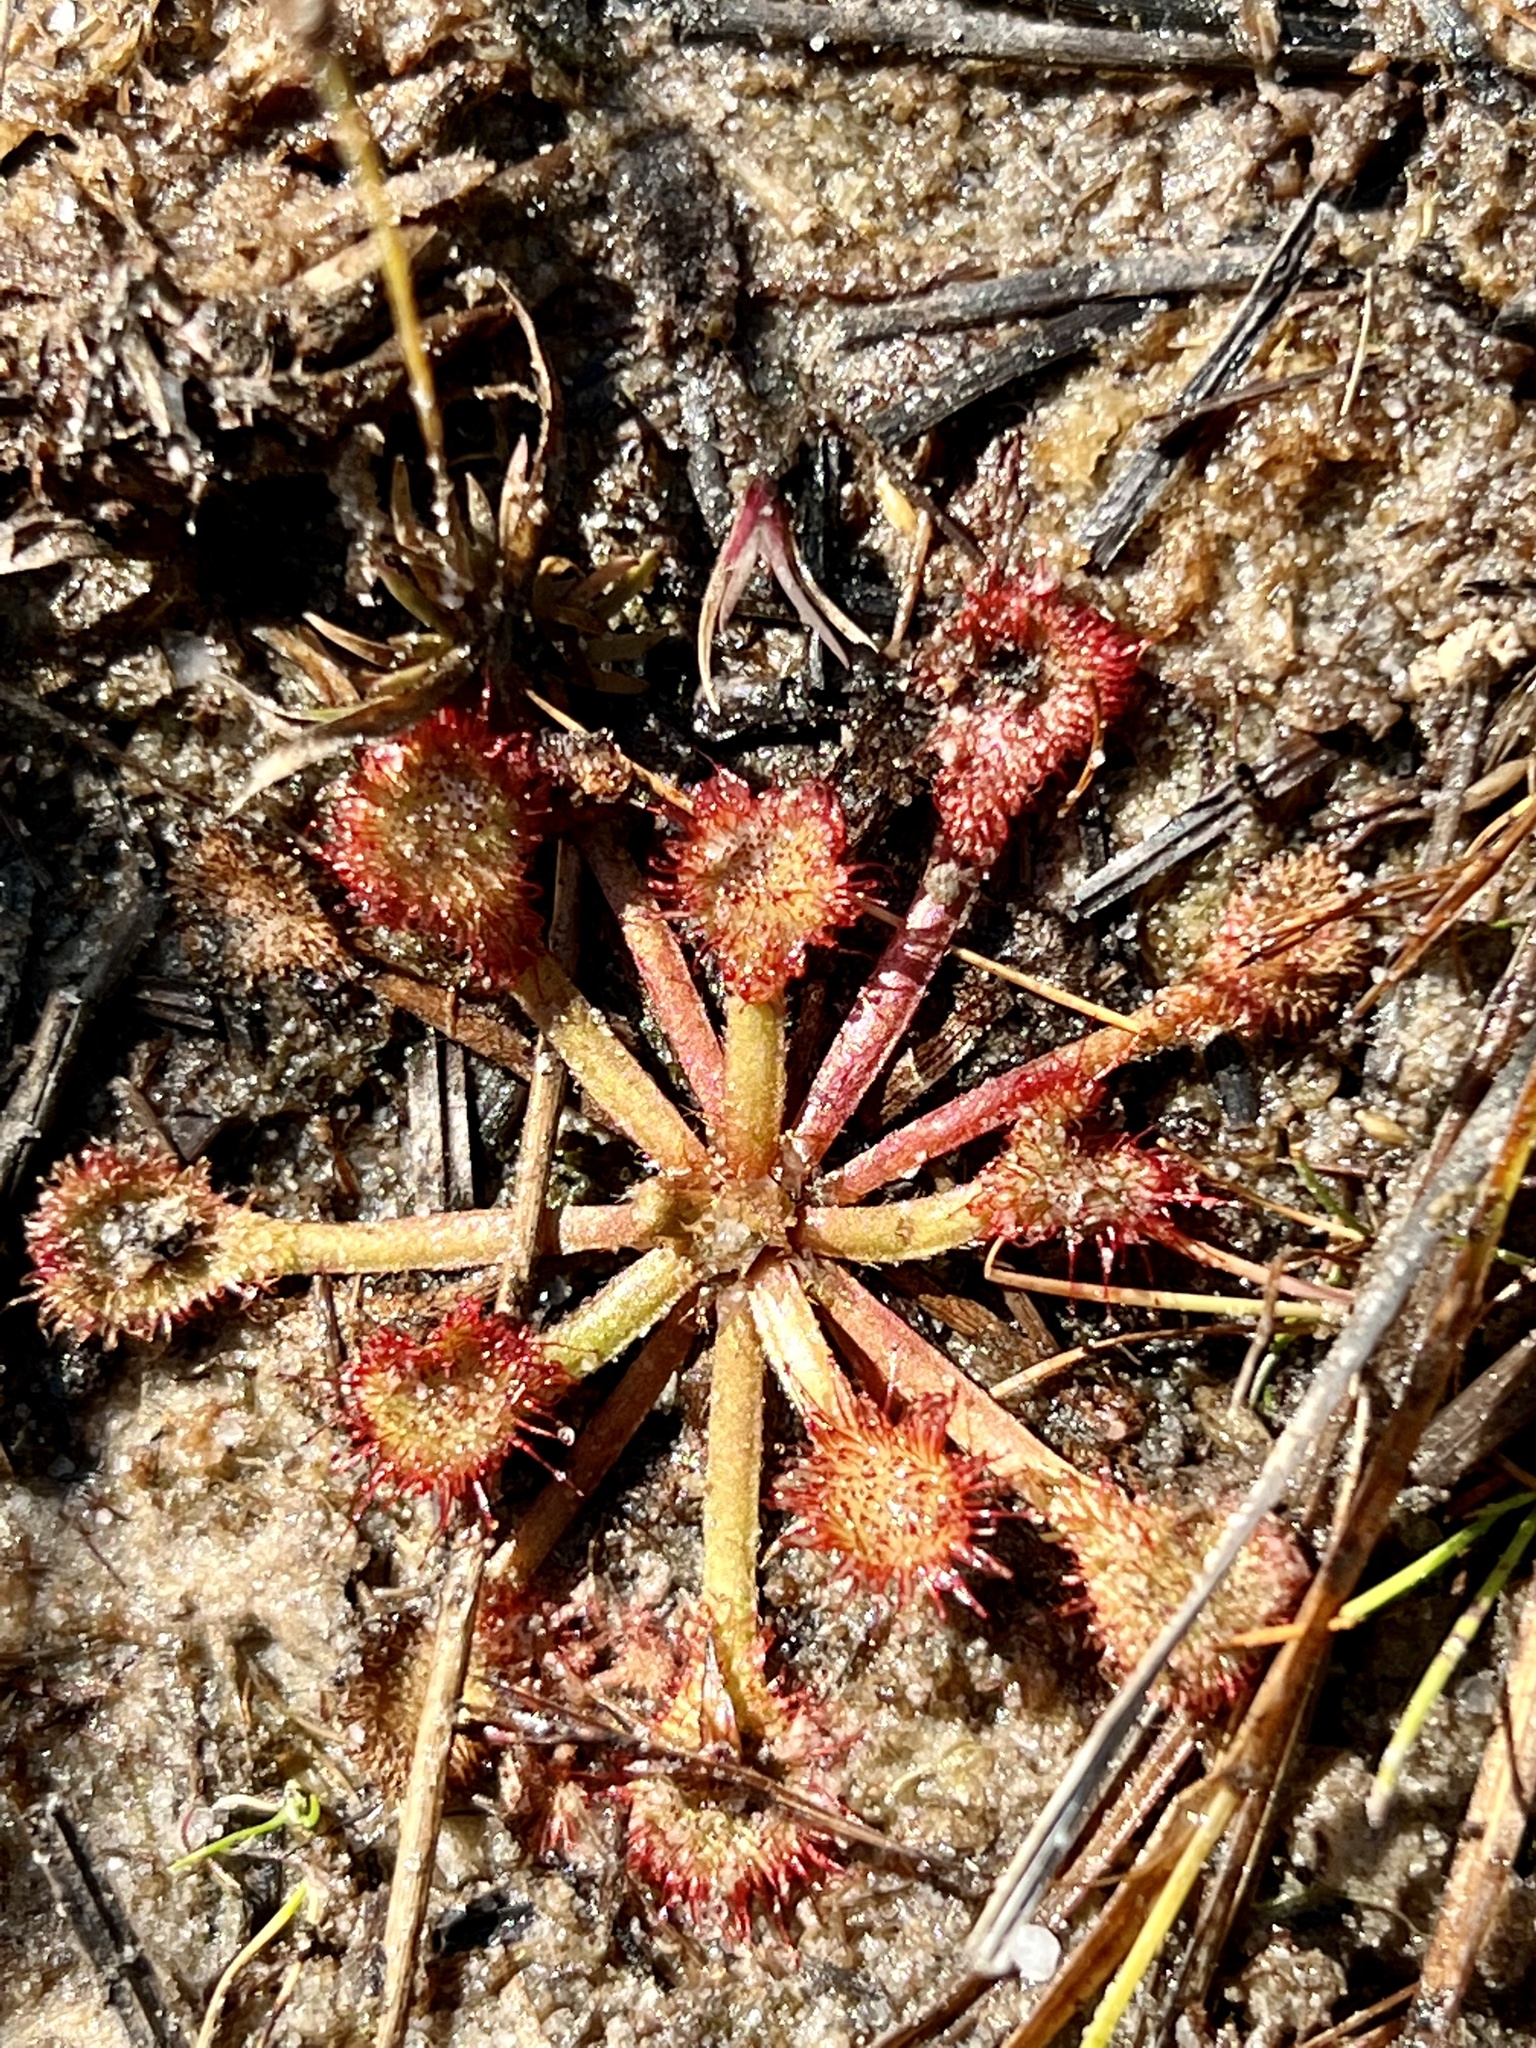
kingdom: Plantae
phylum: Tracheophyta
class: Magnoliopsida
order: Caryophyllales
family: Droseraceae
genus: Drosera
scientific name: Drosera capillaris
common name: Pink sundew
